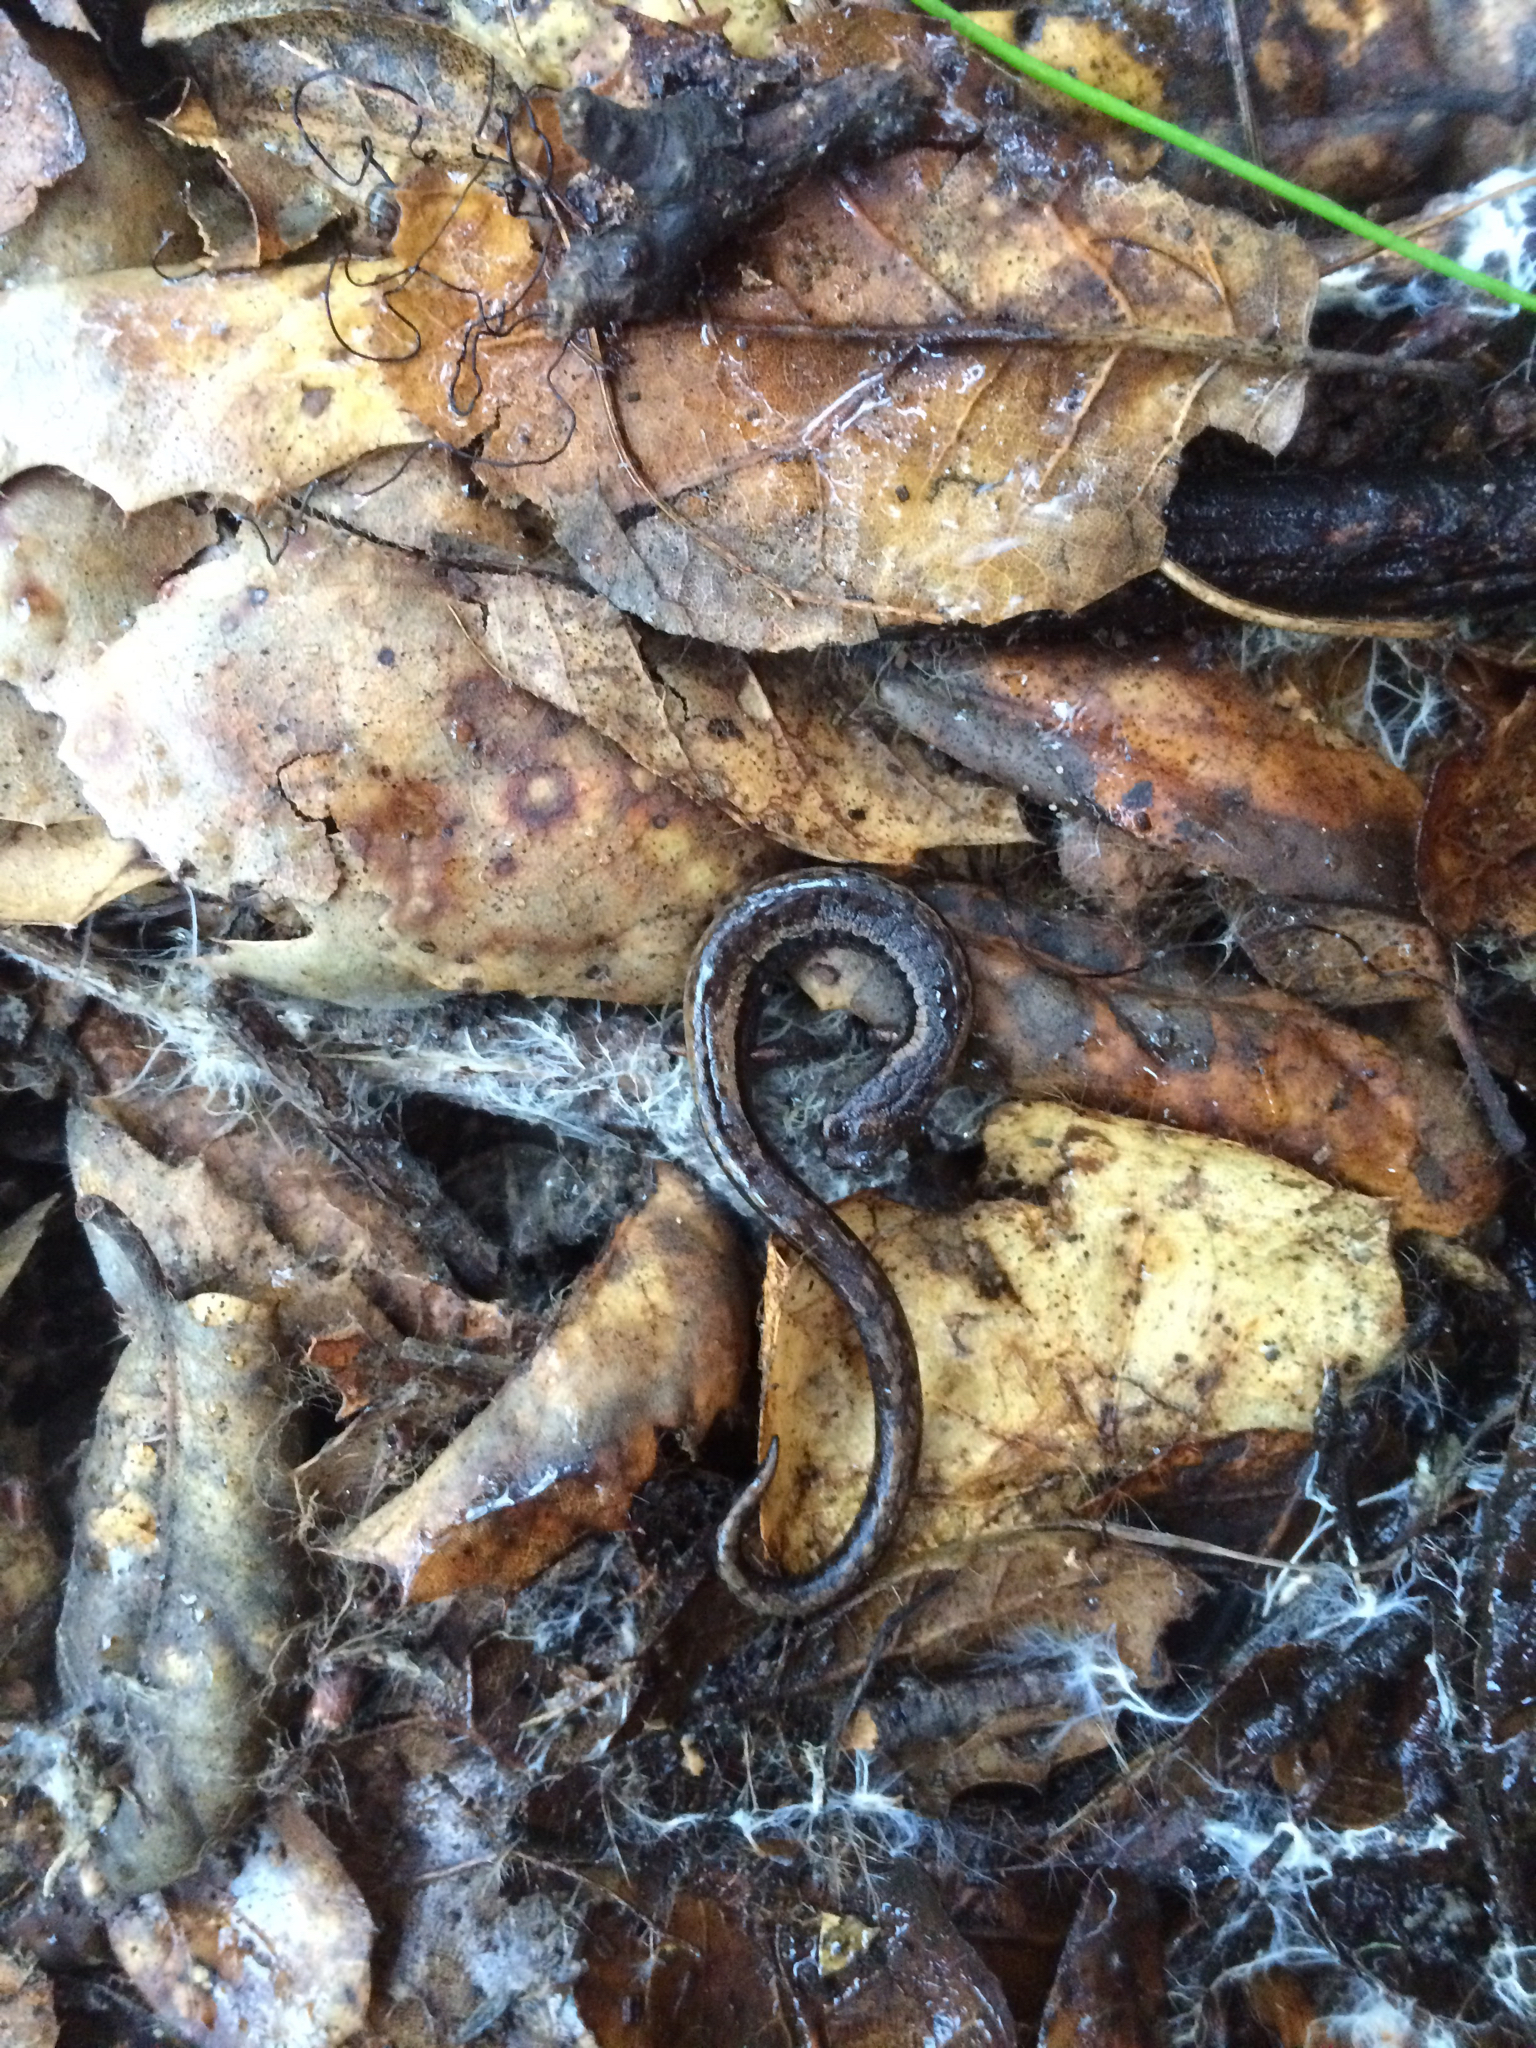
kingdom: Animalia
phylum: Chordata
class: Amphibia
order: Caudata
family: Plethodontidae
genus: Batrachoseps
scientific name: Batrachoseps attenuatus
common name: California slender salamander
